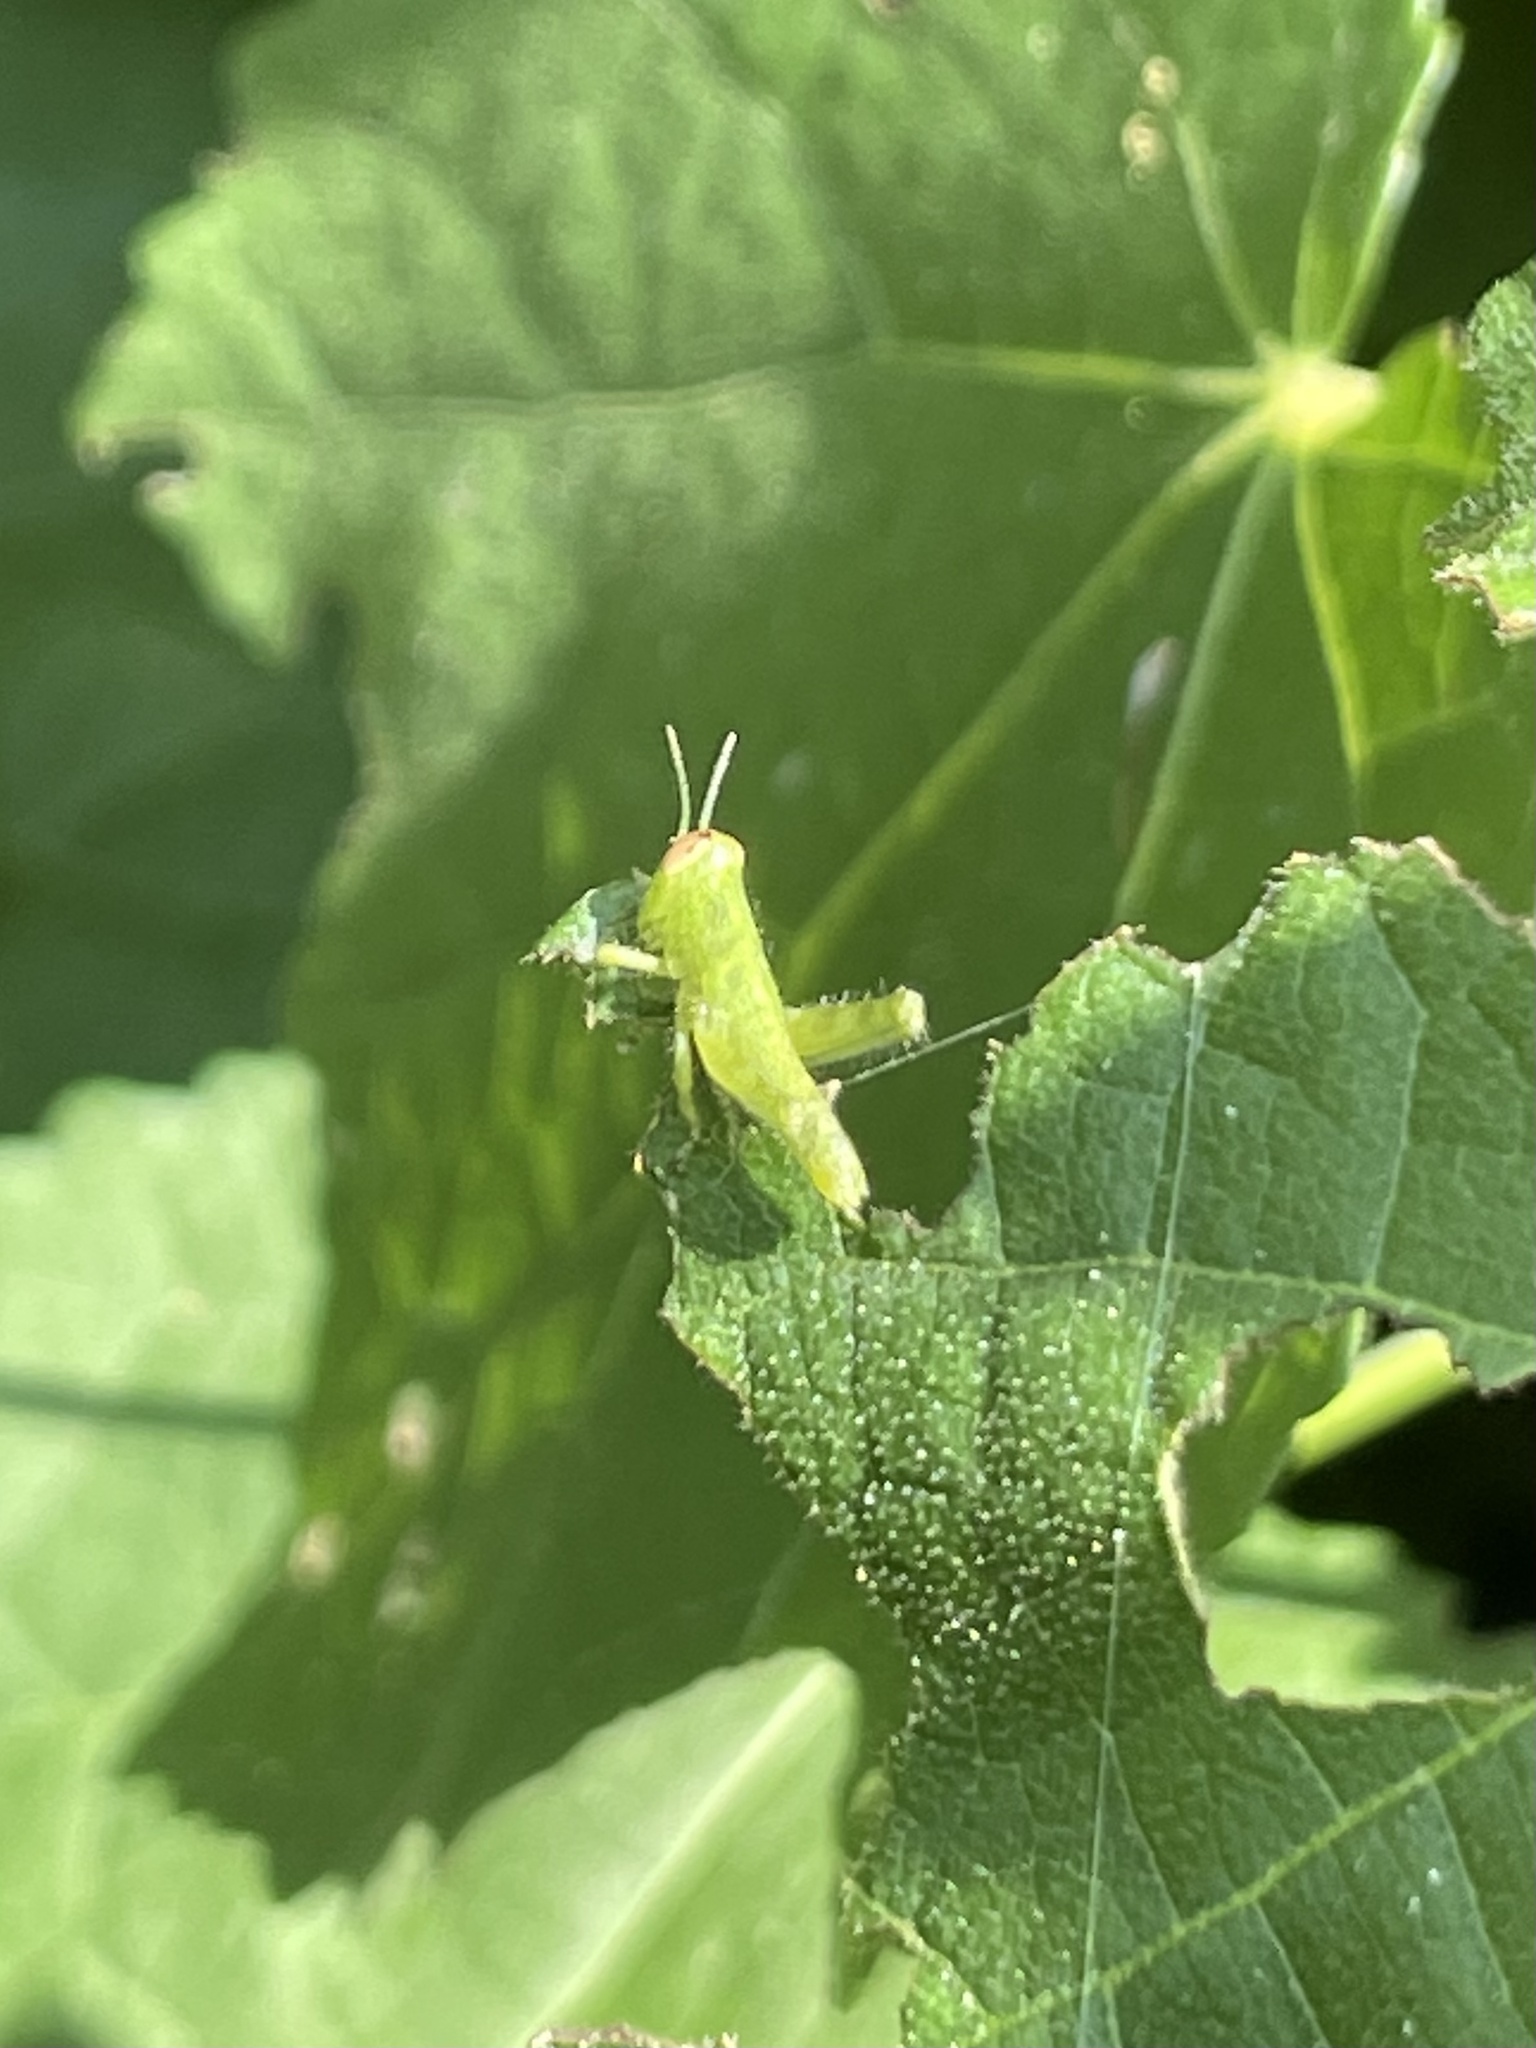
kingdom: Animalia
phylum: Arthropoda
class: Insecta
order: Orthoptera
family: Acrididae
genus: Schistocerca
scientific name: Schistocerca obscura
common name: Obscure bird grasshopper
